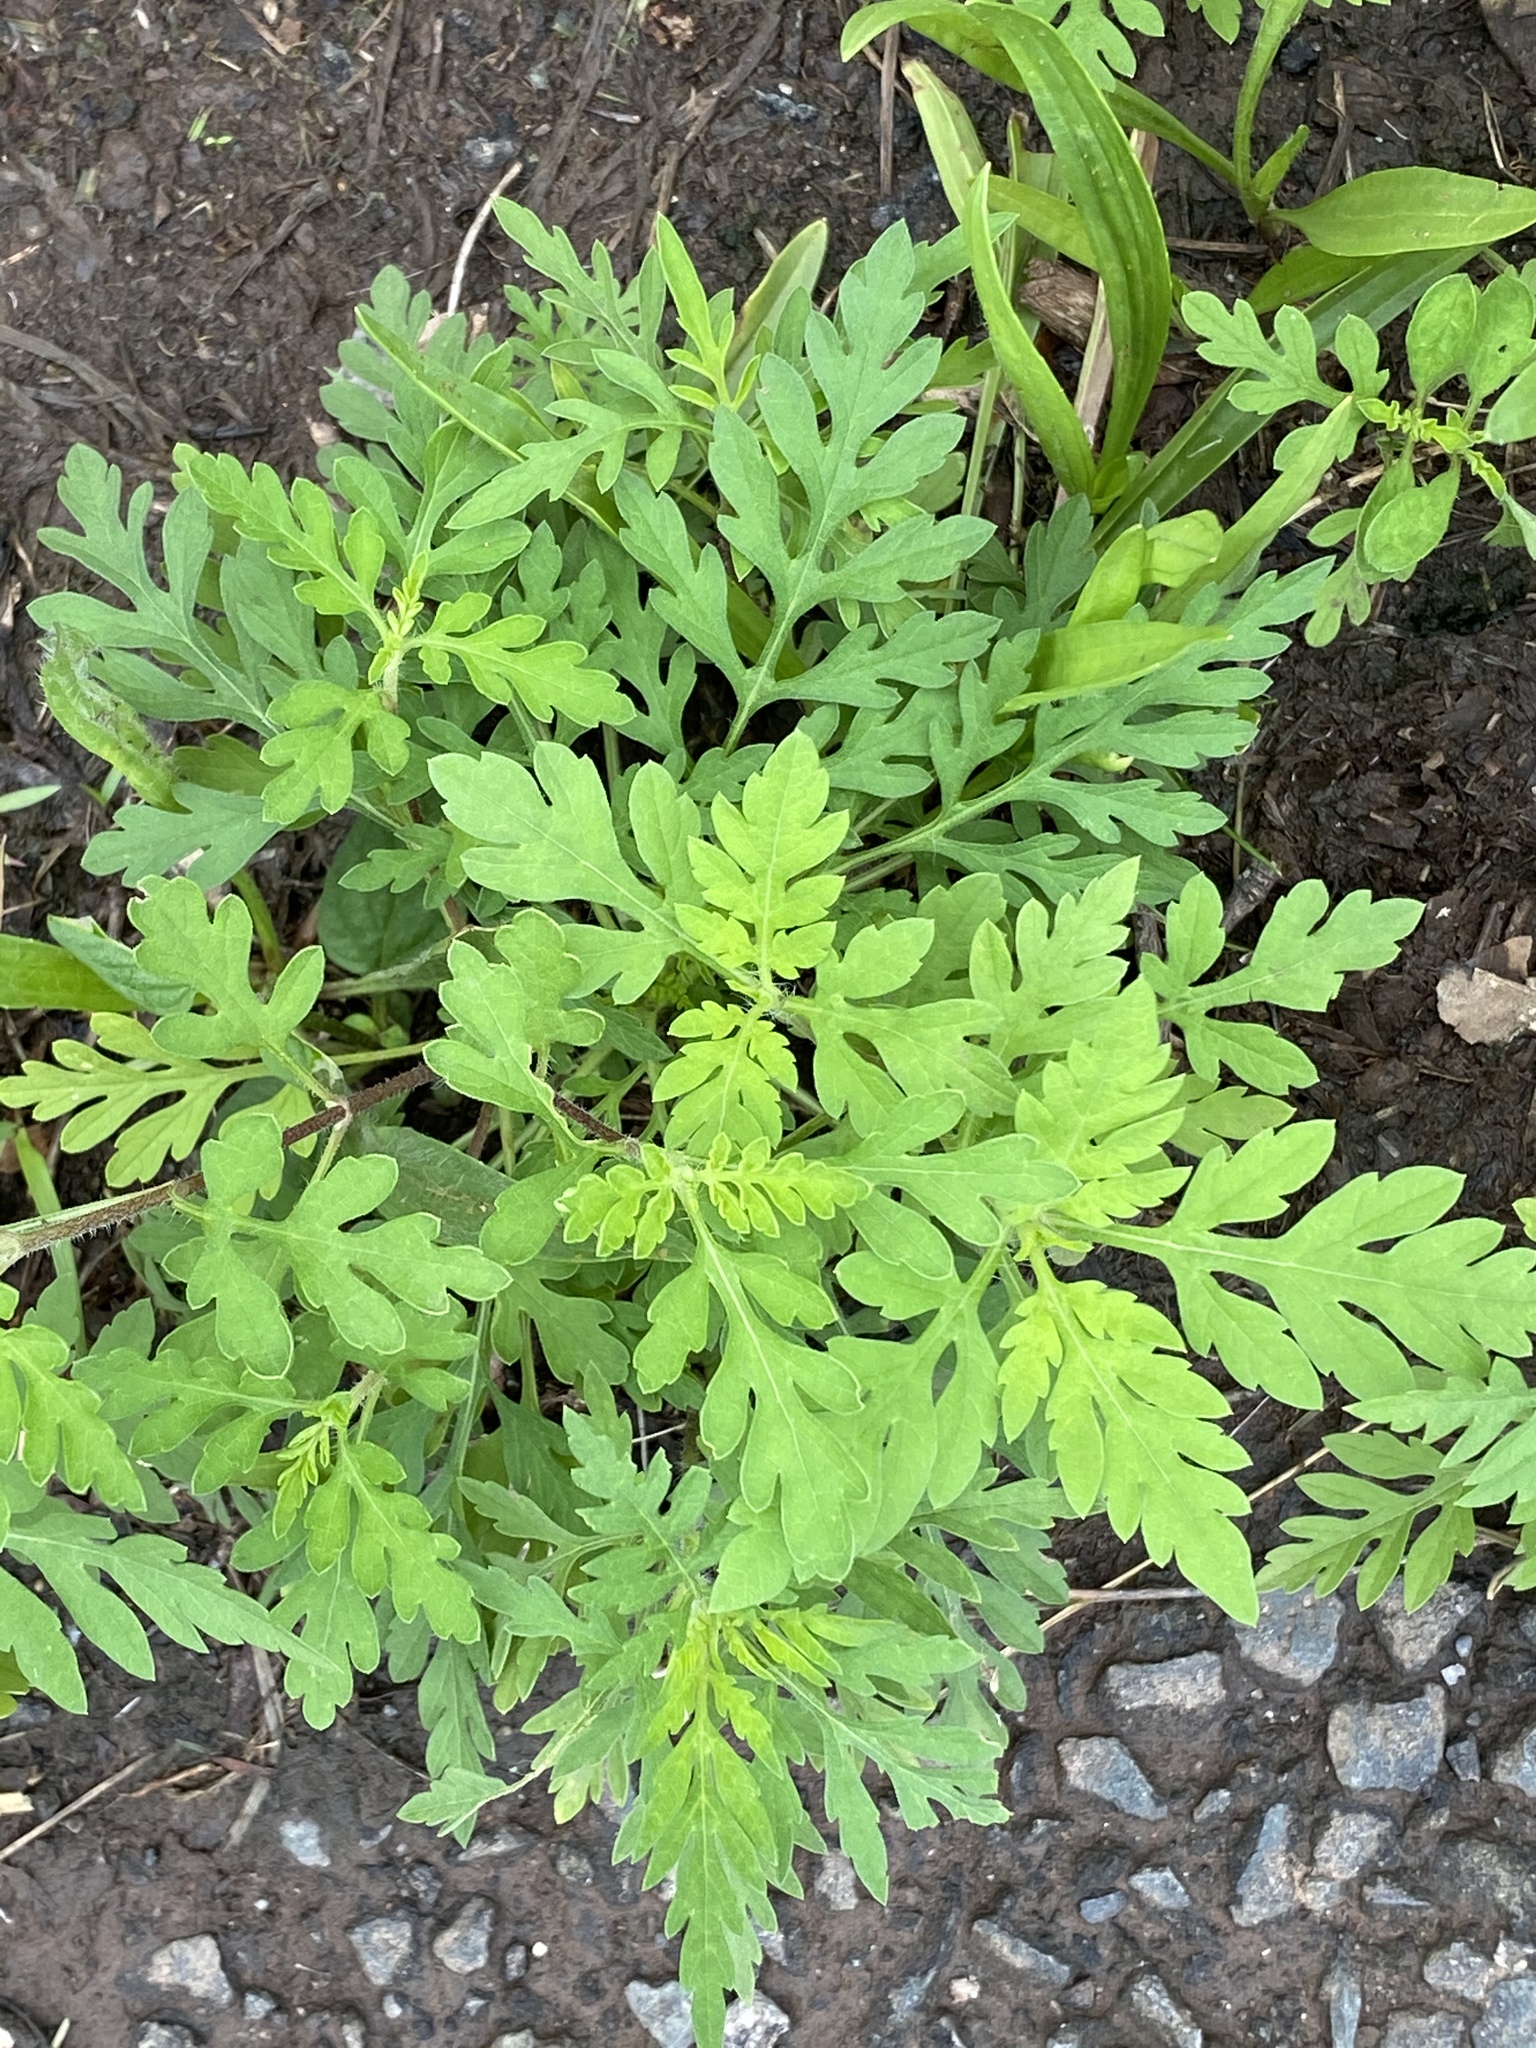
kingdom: Plantae
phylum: Tracheophyta
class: Magnoliopsida
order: Asterales
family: Asteraceae
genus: Ambrosia
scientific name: Ambrosia artemisiifolia
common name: Annual ragweed
